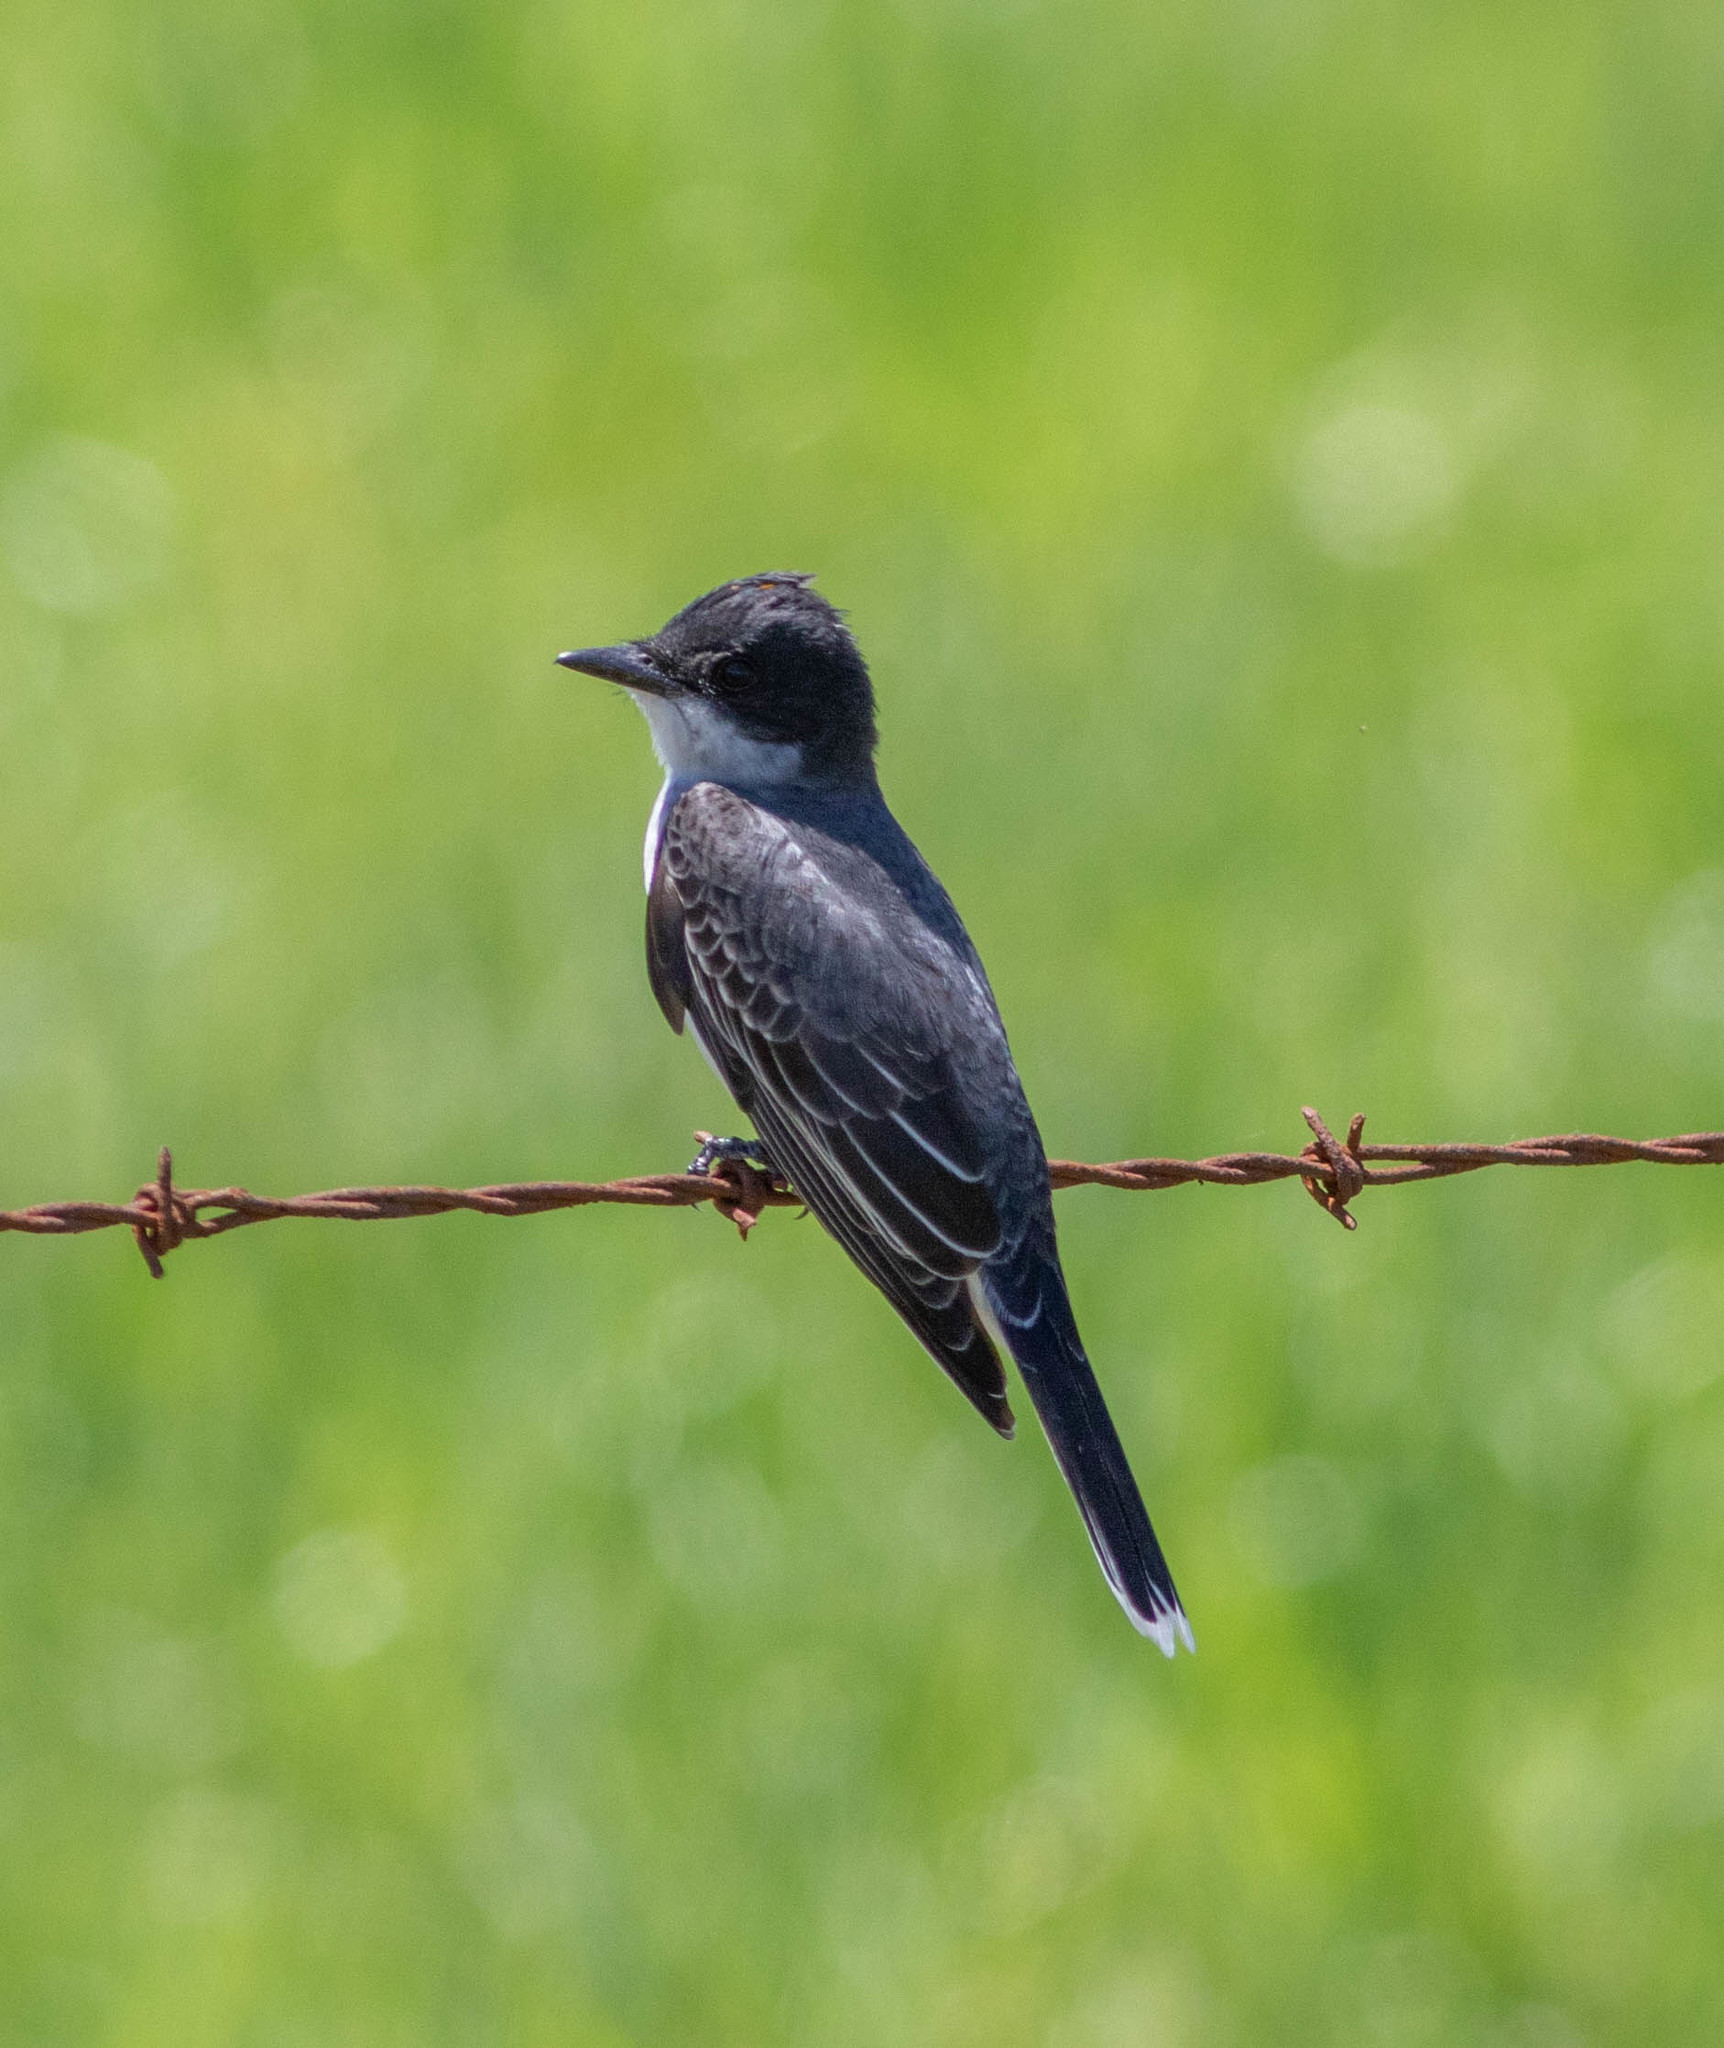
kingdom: Animalia
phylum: Chordata
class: Aves
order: Passeriformes
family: Tyrannidae
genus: Tyrannus
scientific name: Tyrannus tyrannus
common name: Eastern kingbird
